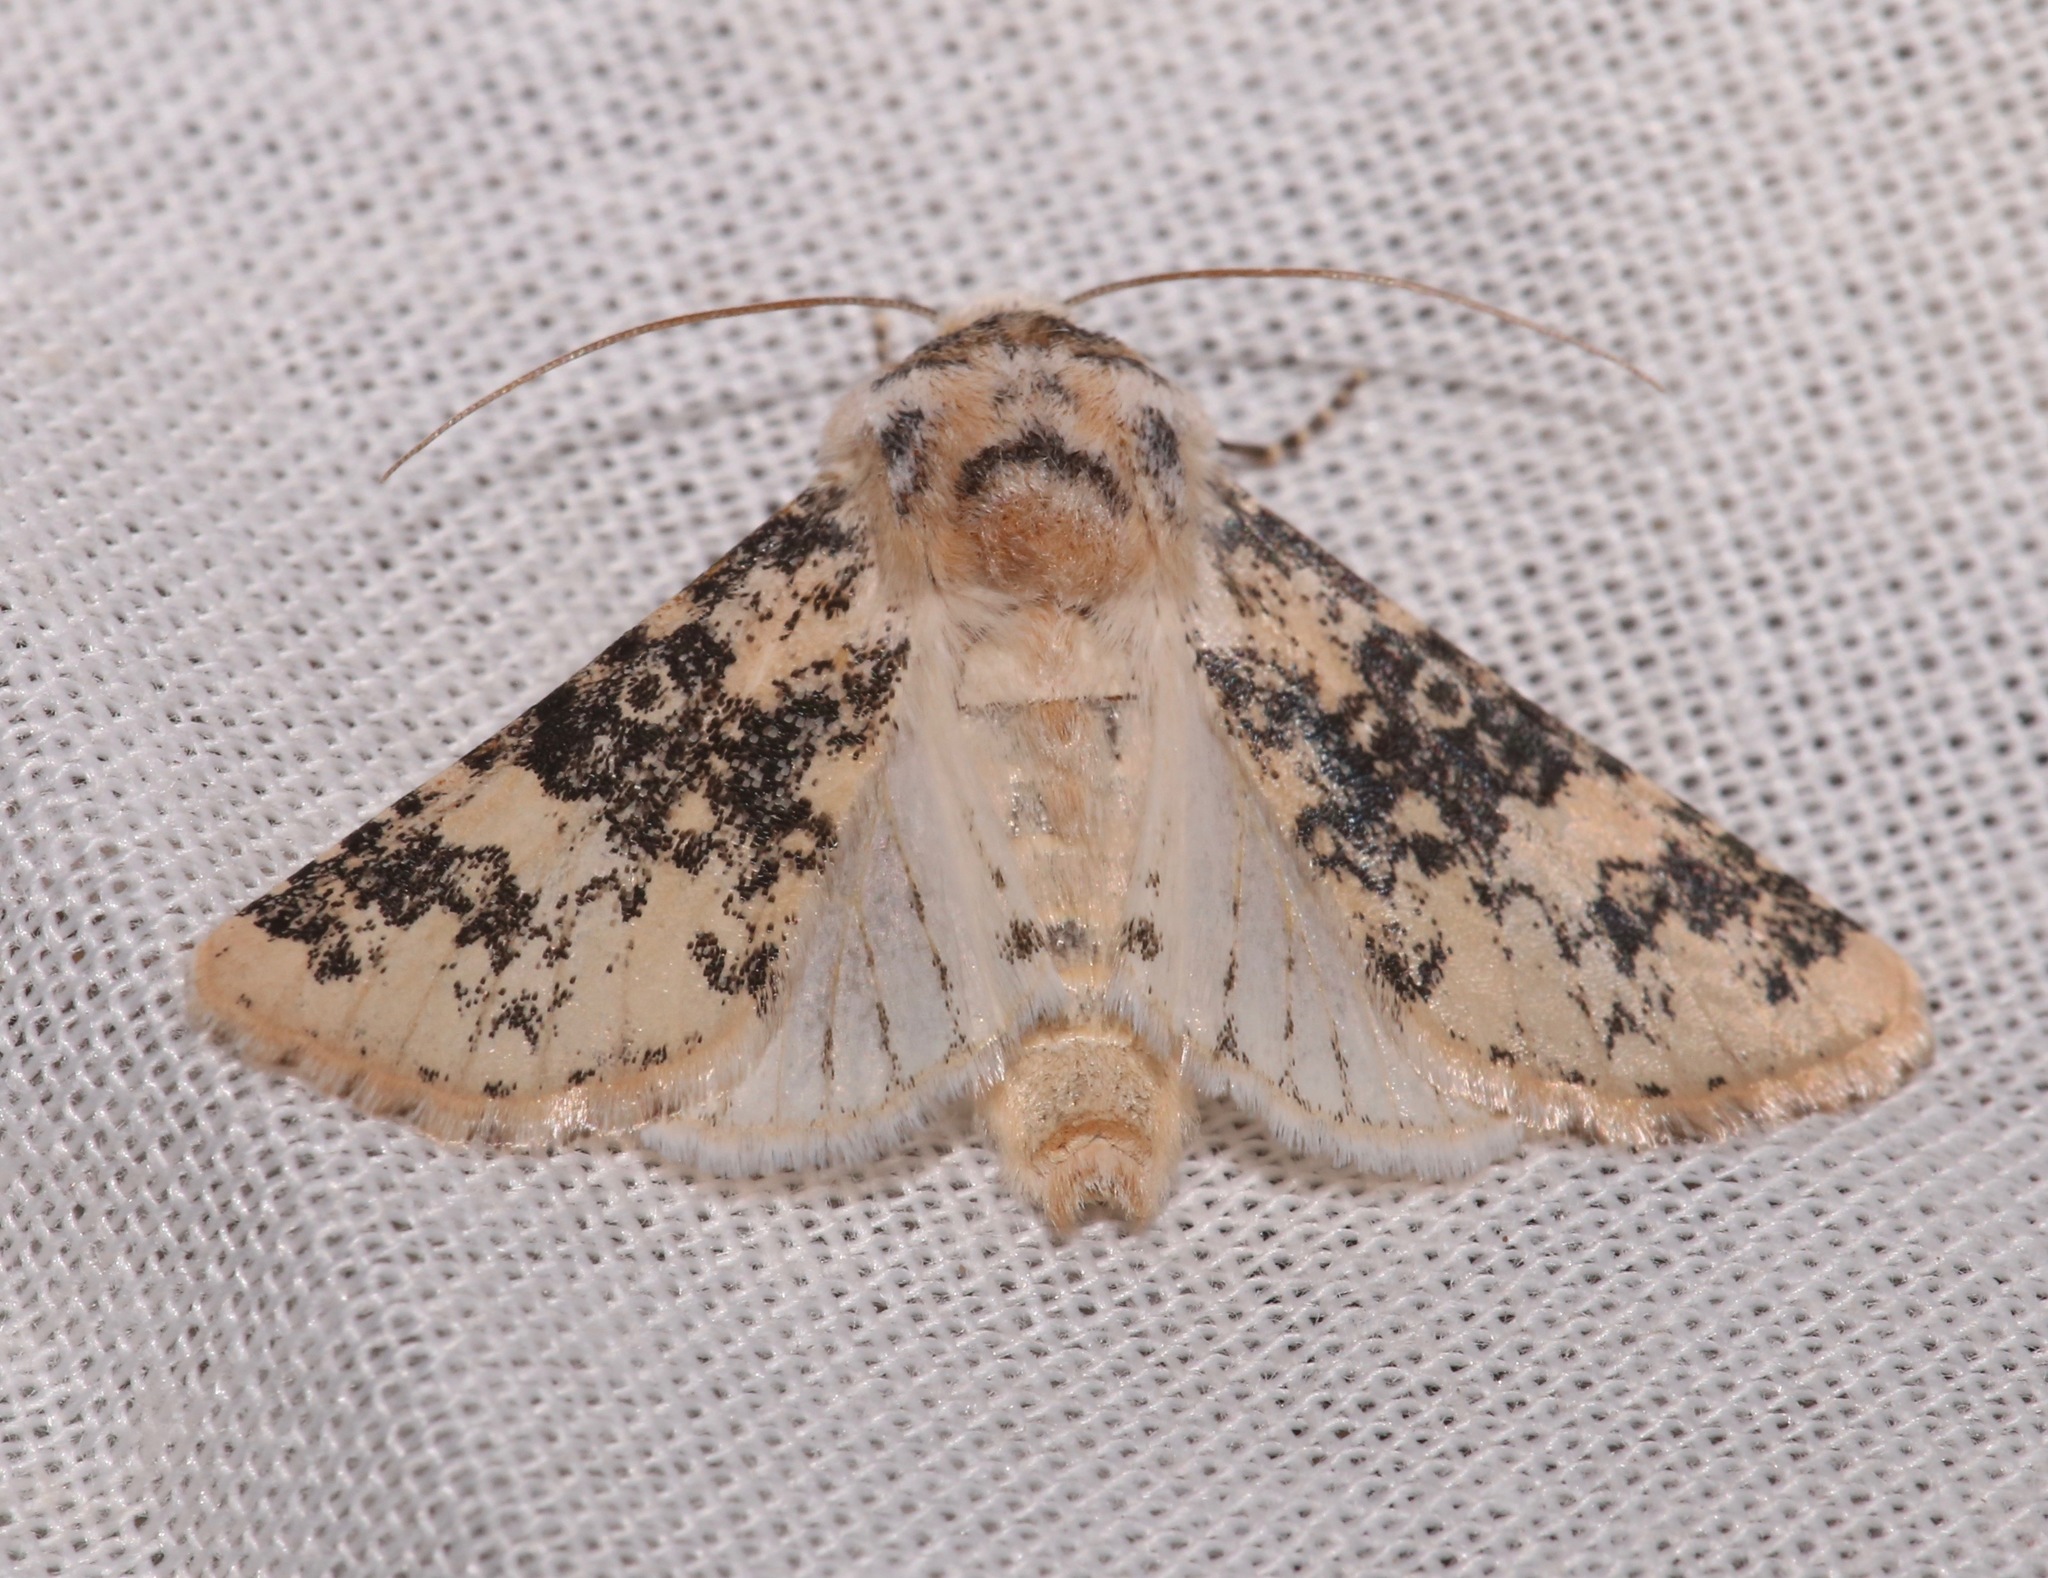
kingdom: Animalia
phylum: Arthropoda
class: Insecta
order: Lepidoptera
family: Noctuidae
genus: Unciella
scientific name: Unciella primula
